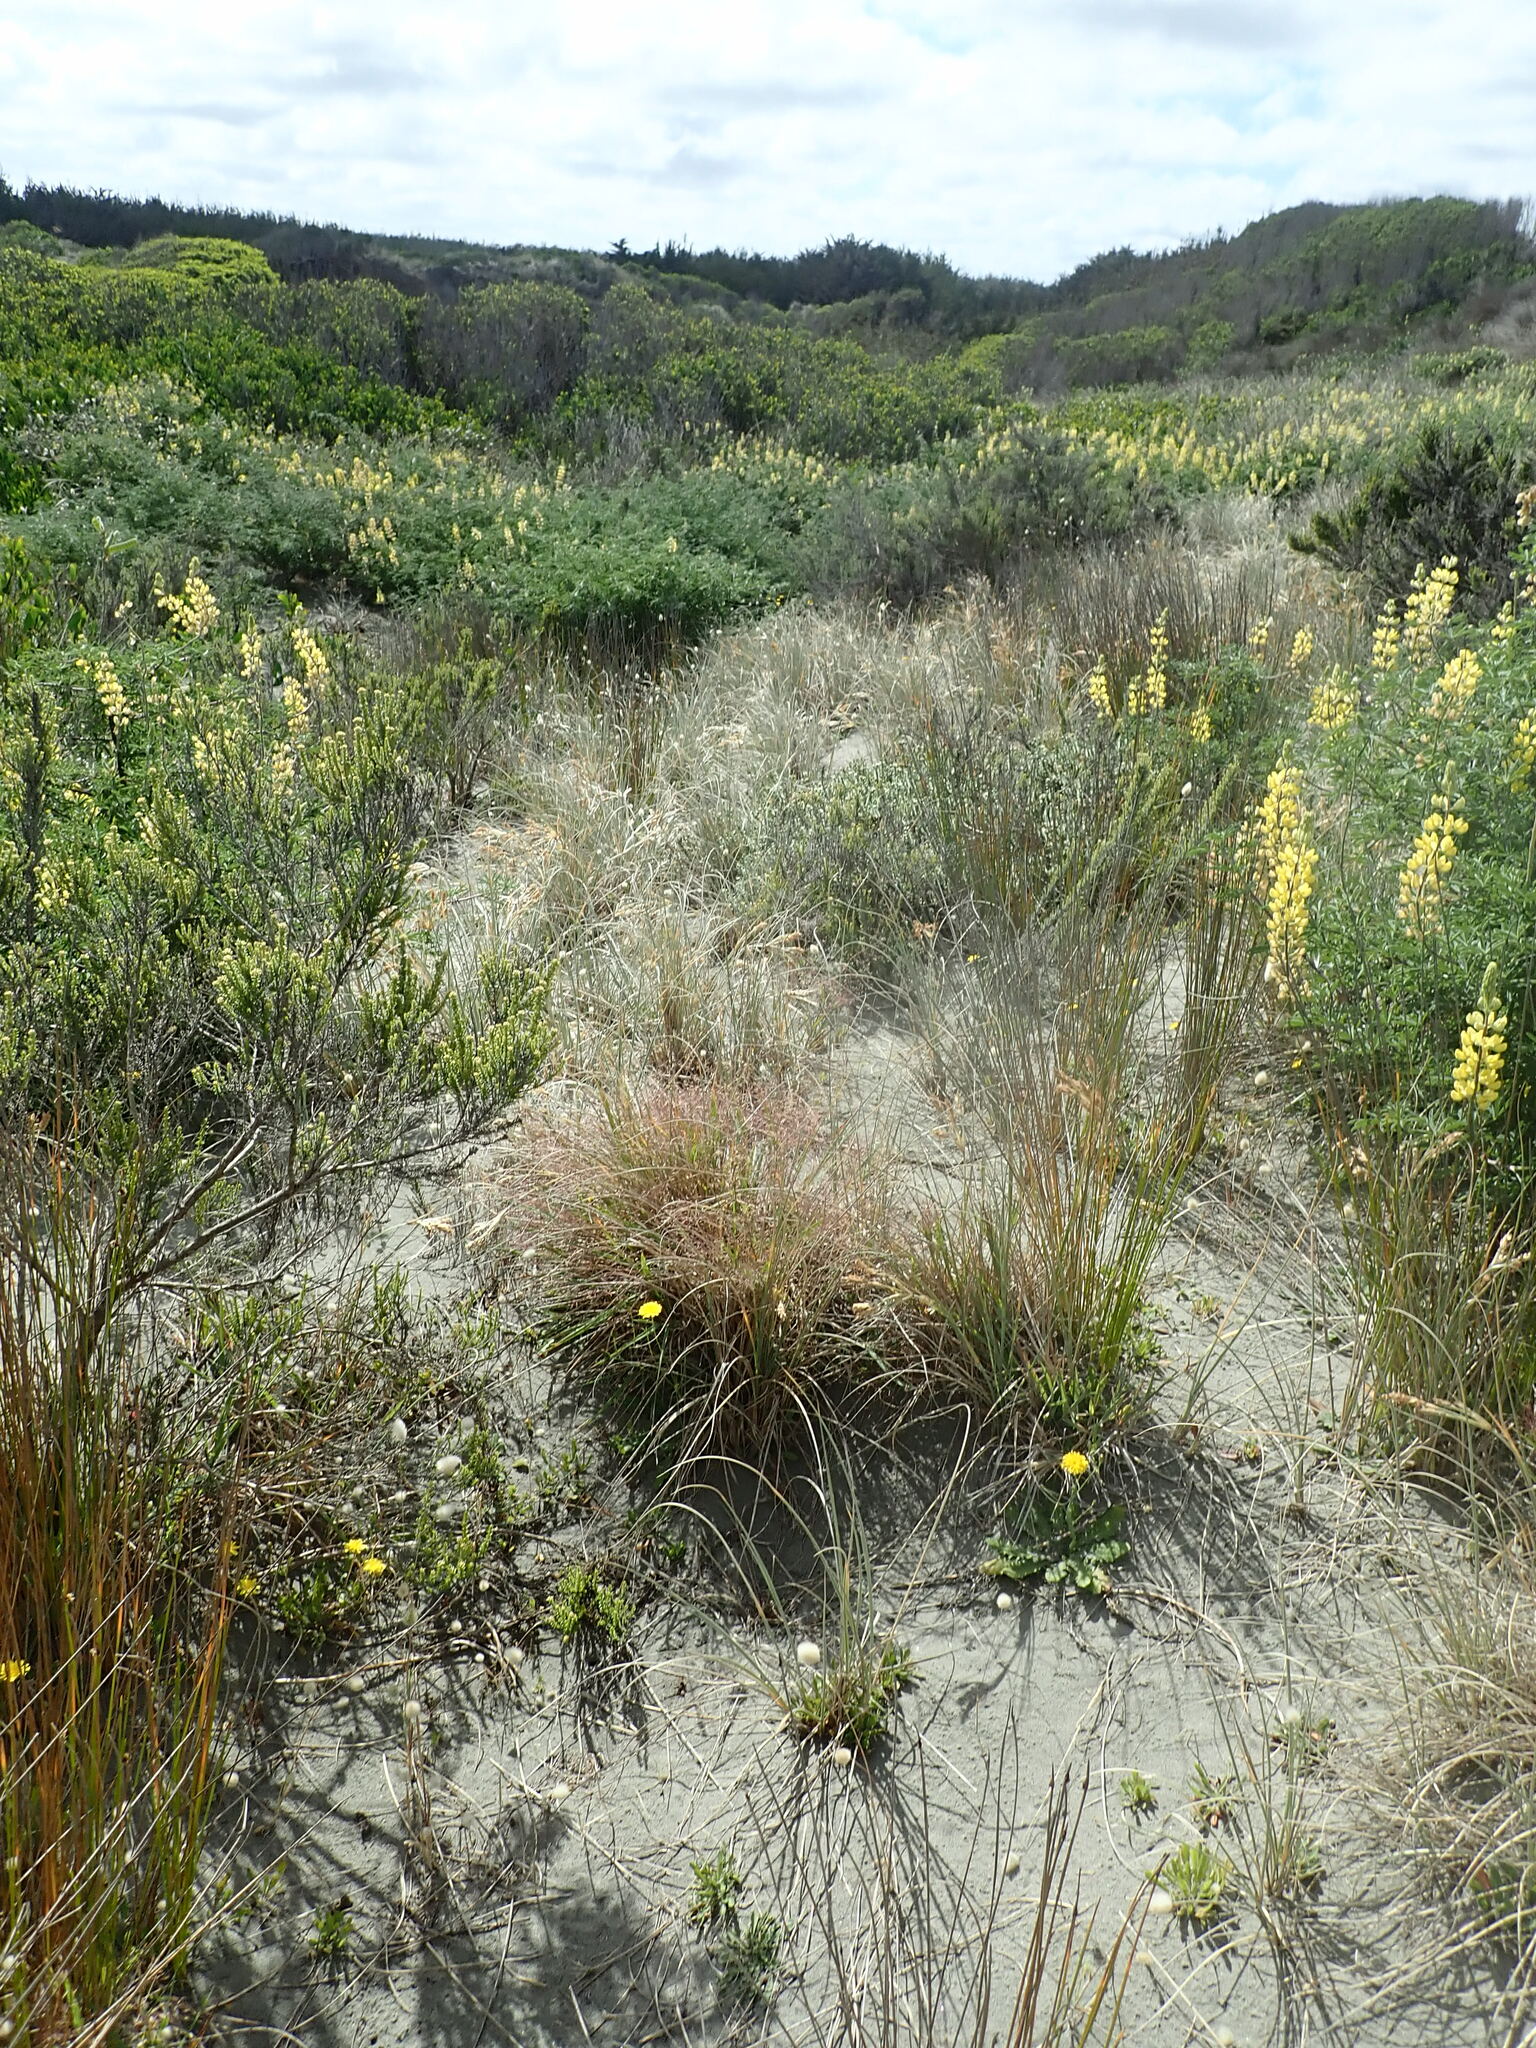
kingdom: Plantae
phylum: Tracheophyta
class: Liliopsida
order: Poales
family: Poaceae
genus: Lachnagrostis
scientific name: Lachnagrostis billardierei
